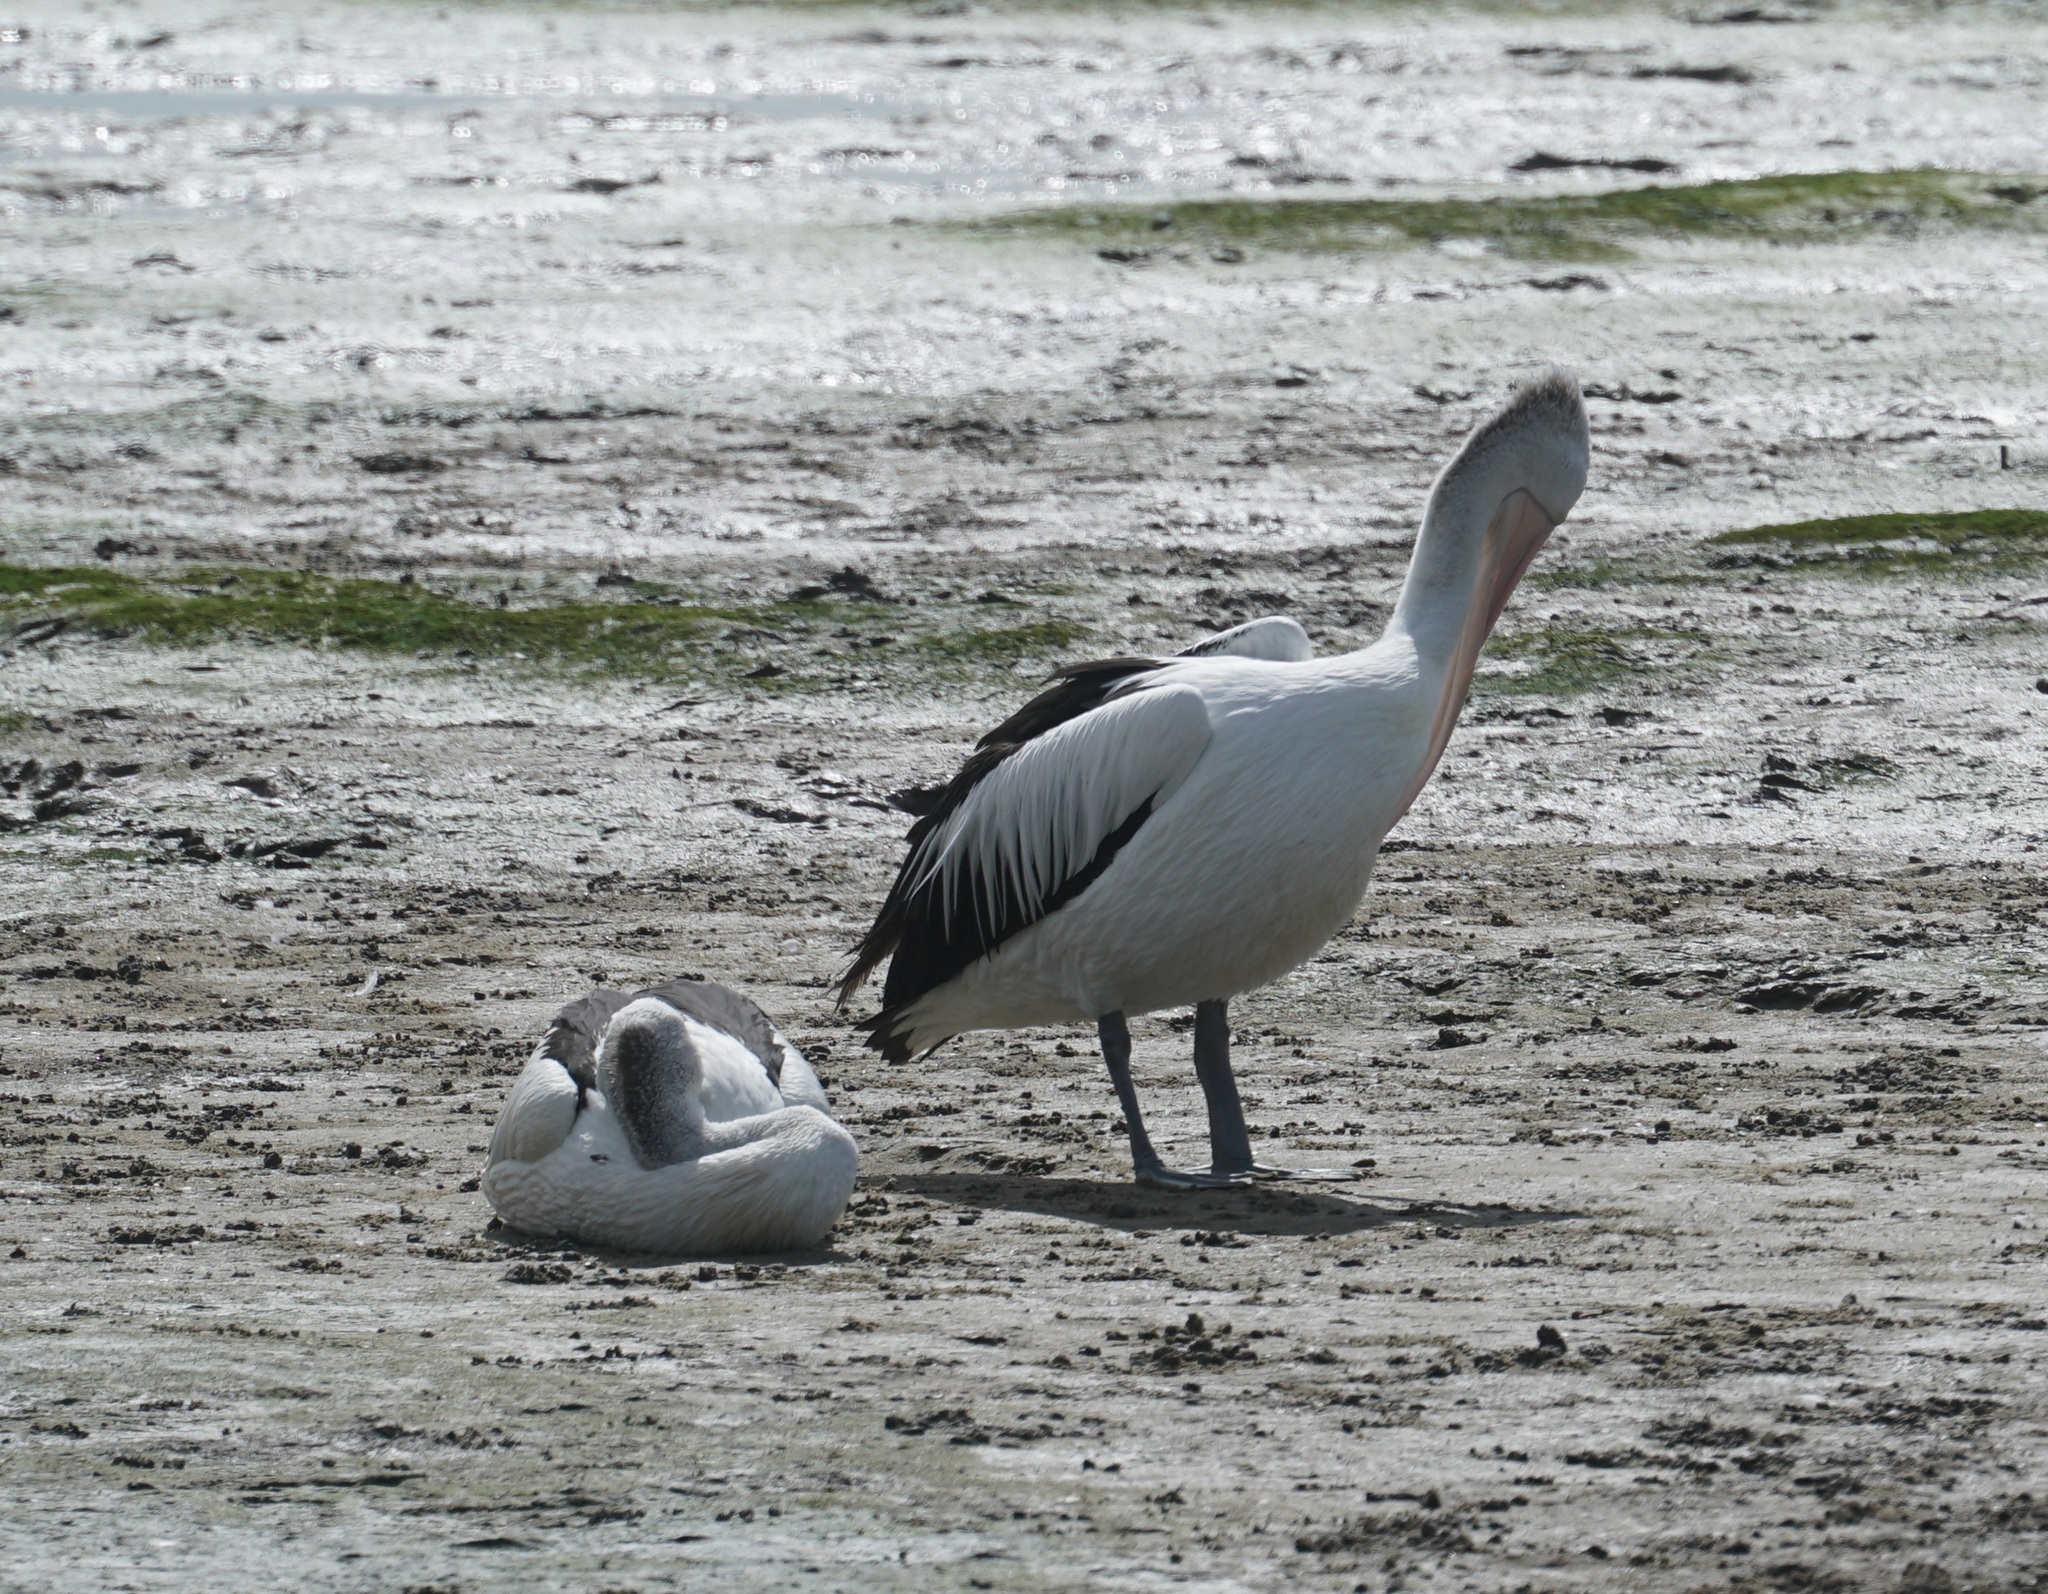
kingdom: Animalia
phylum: Chordata
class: Aves
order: Pelecaniformes
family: Pelecanidae
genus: Pelecanus
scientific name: Pelecanus conspicillatus
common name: Australian pelican
